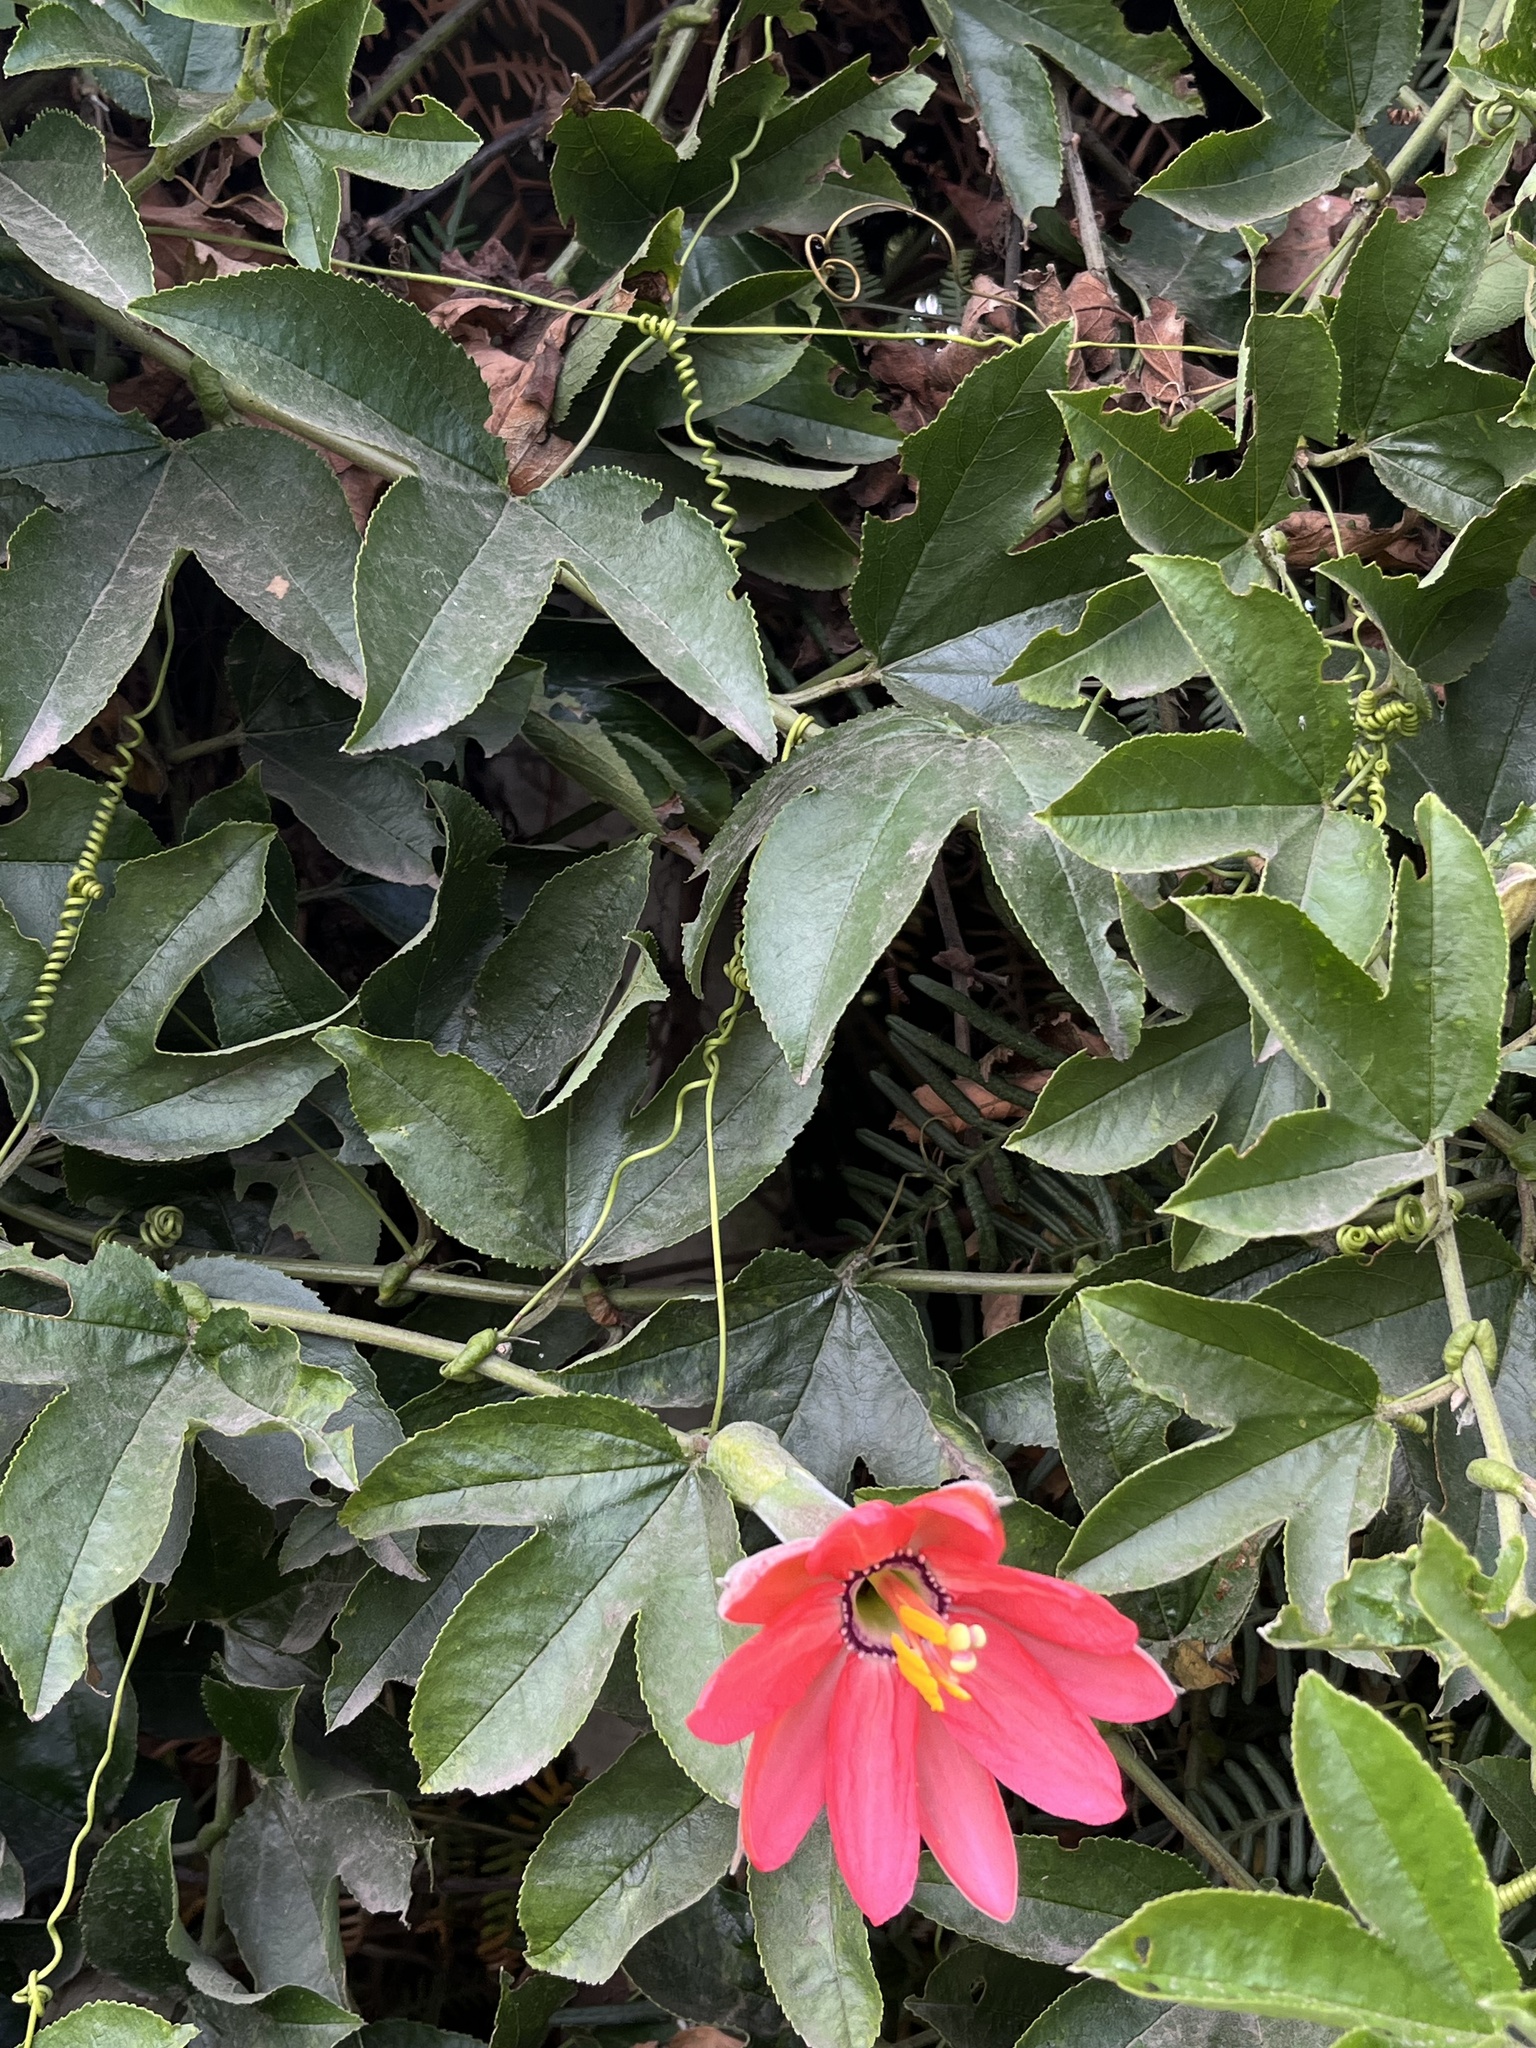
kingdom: Plantae
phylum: Tracheophyta
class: Magnoliopsida
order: Malpighiales
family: Passifloraceae
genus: Passiflora
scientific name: Passiflora mixta
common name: Passion flower
